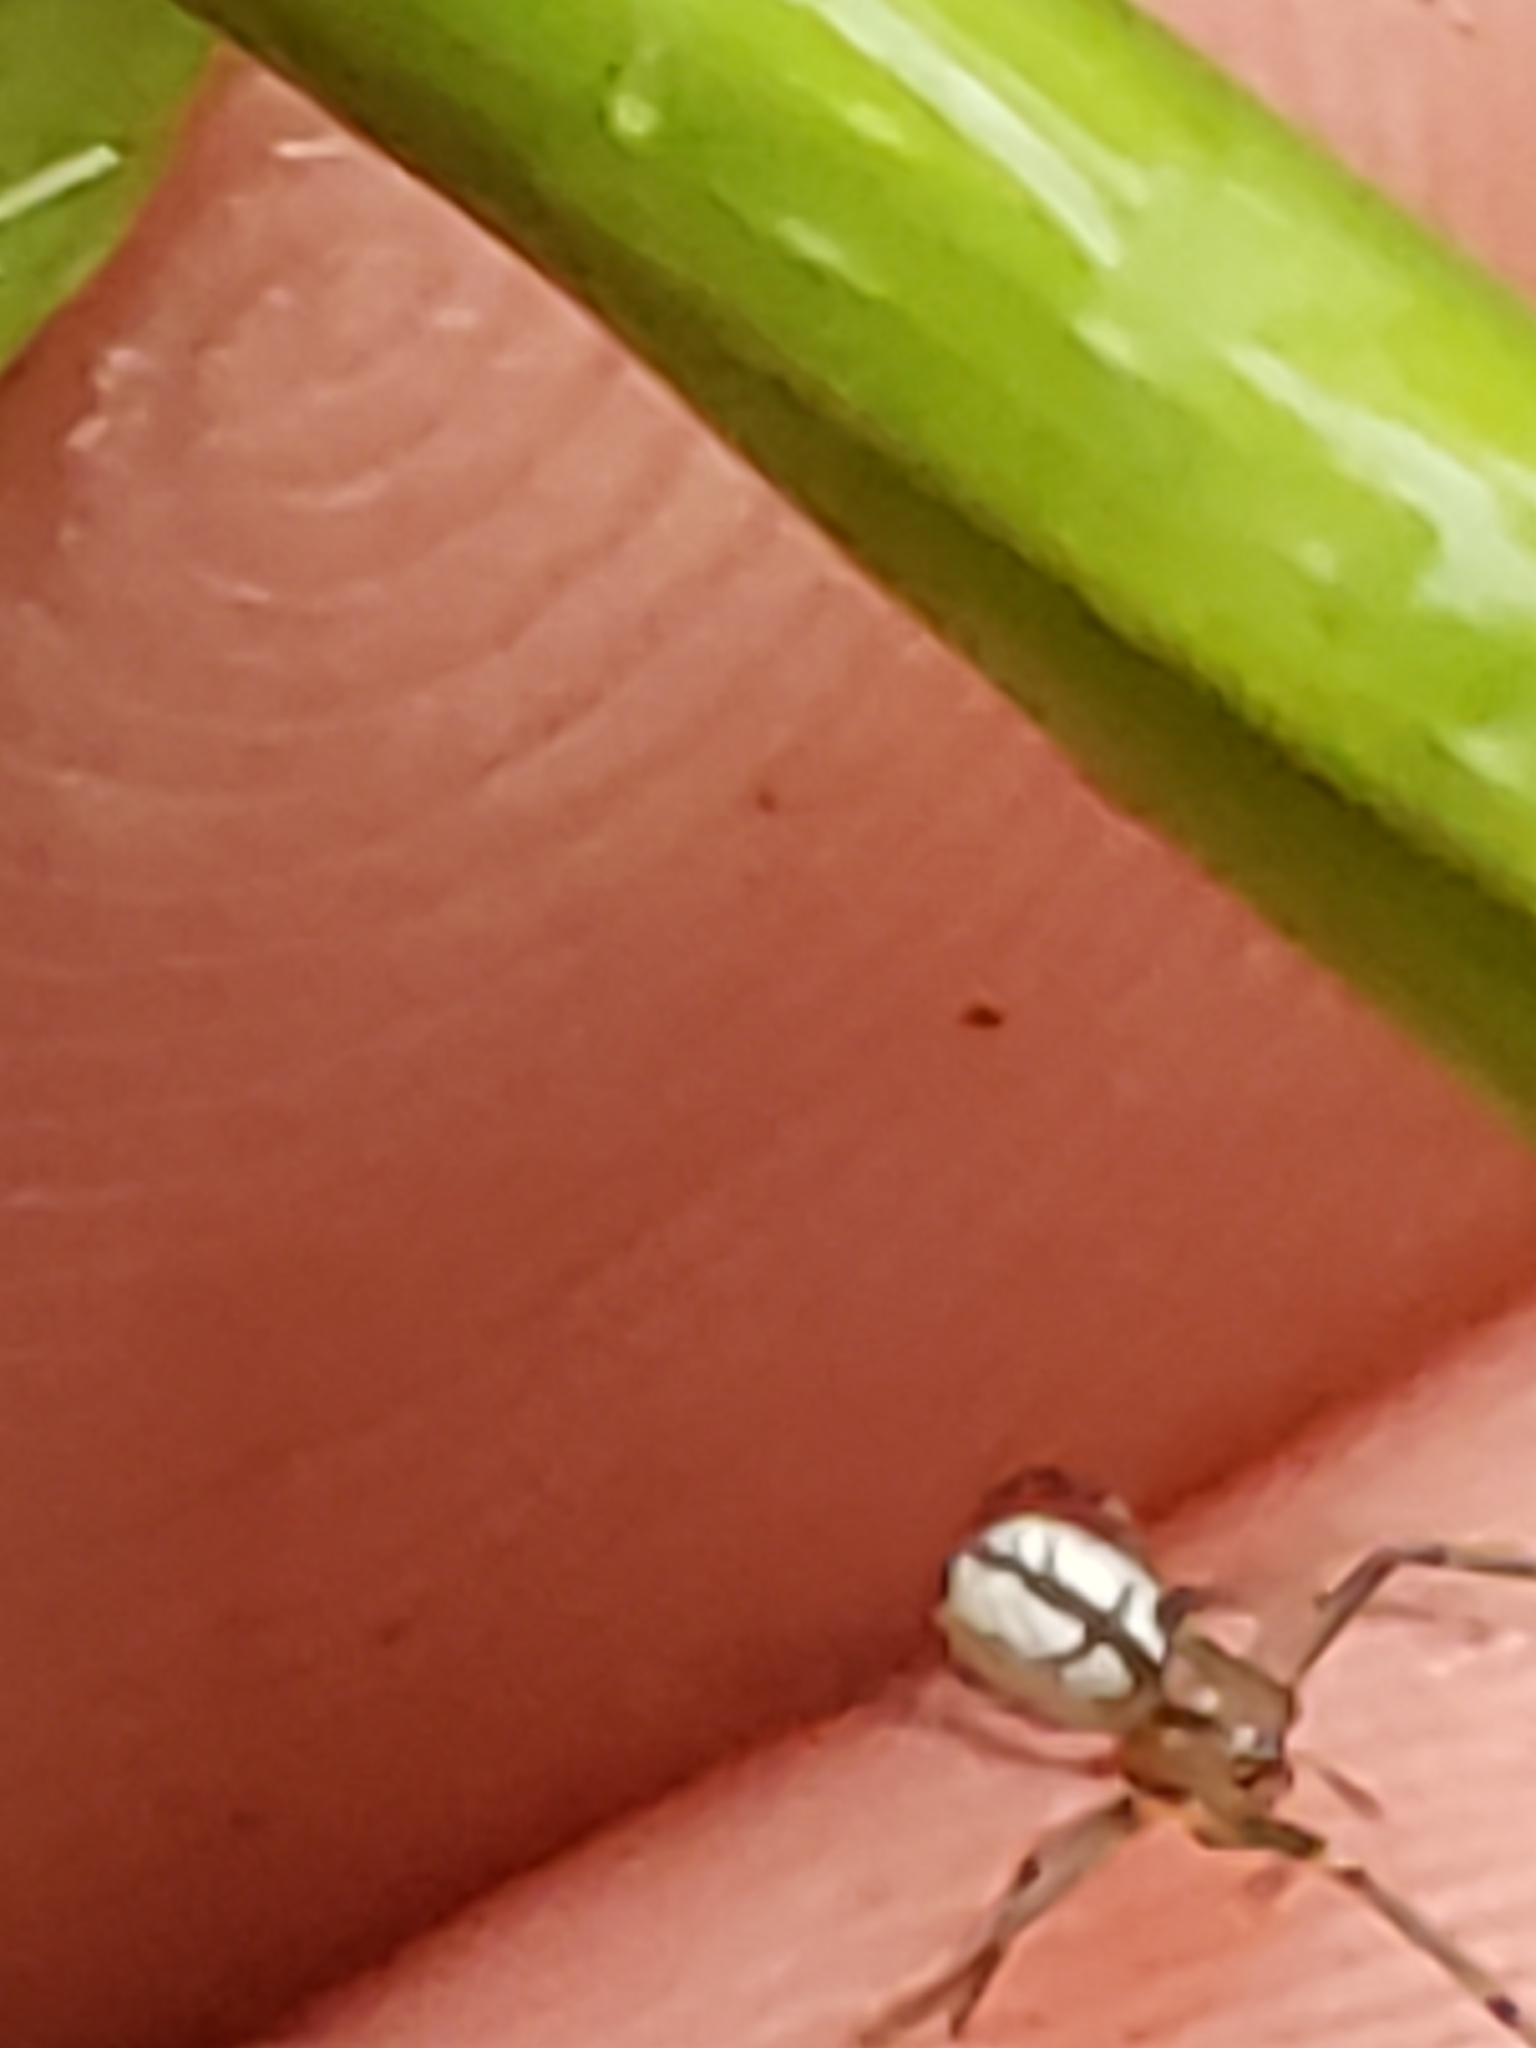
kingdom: Animalia
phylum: Arthropoda
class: Arachnida
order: Araneae
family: Tetragnathidae
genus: Leucauge
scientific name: Leucauge venusta
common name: Longjawed orb weavers
